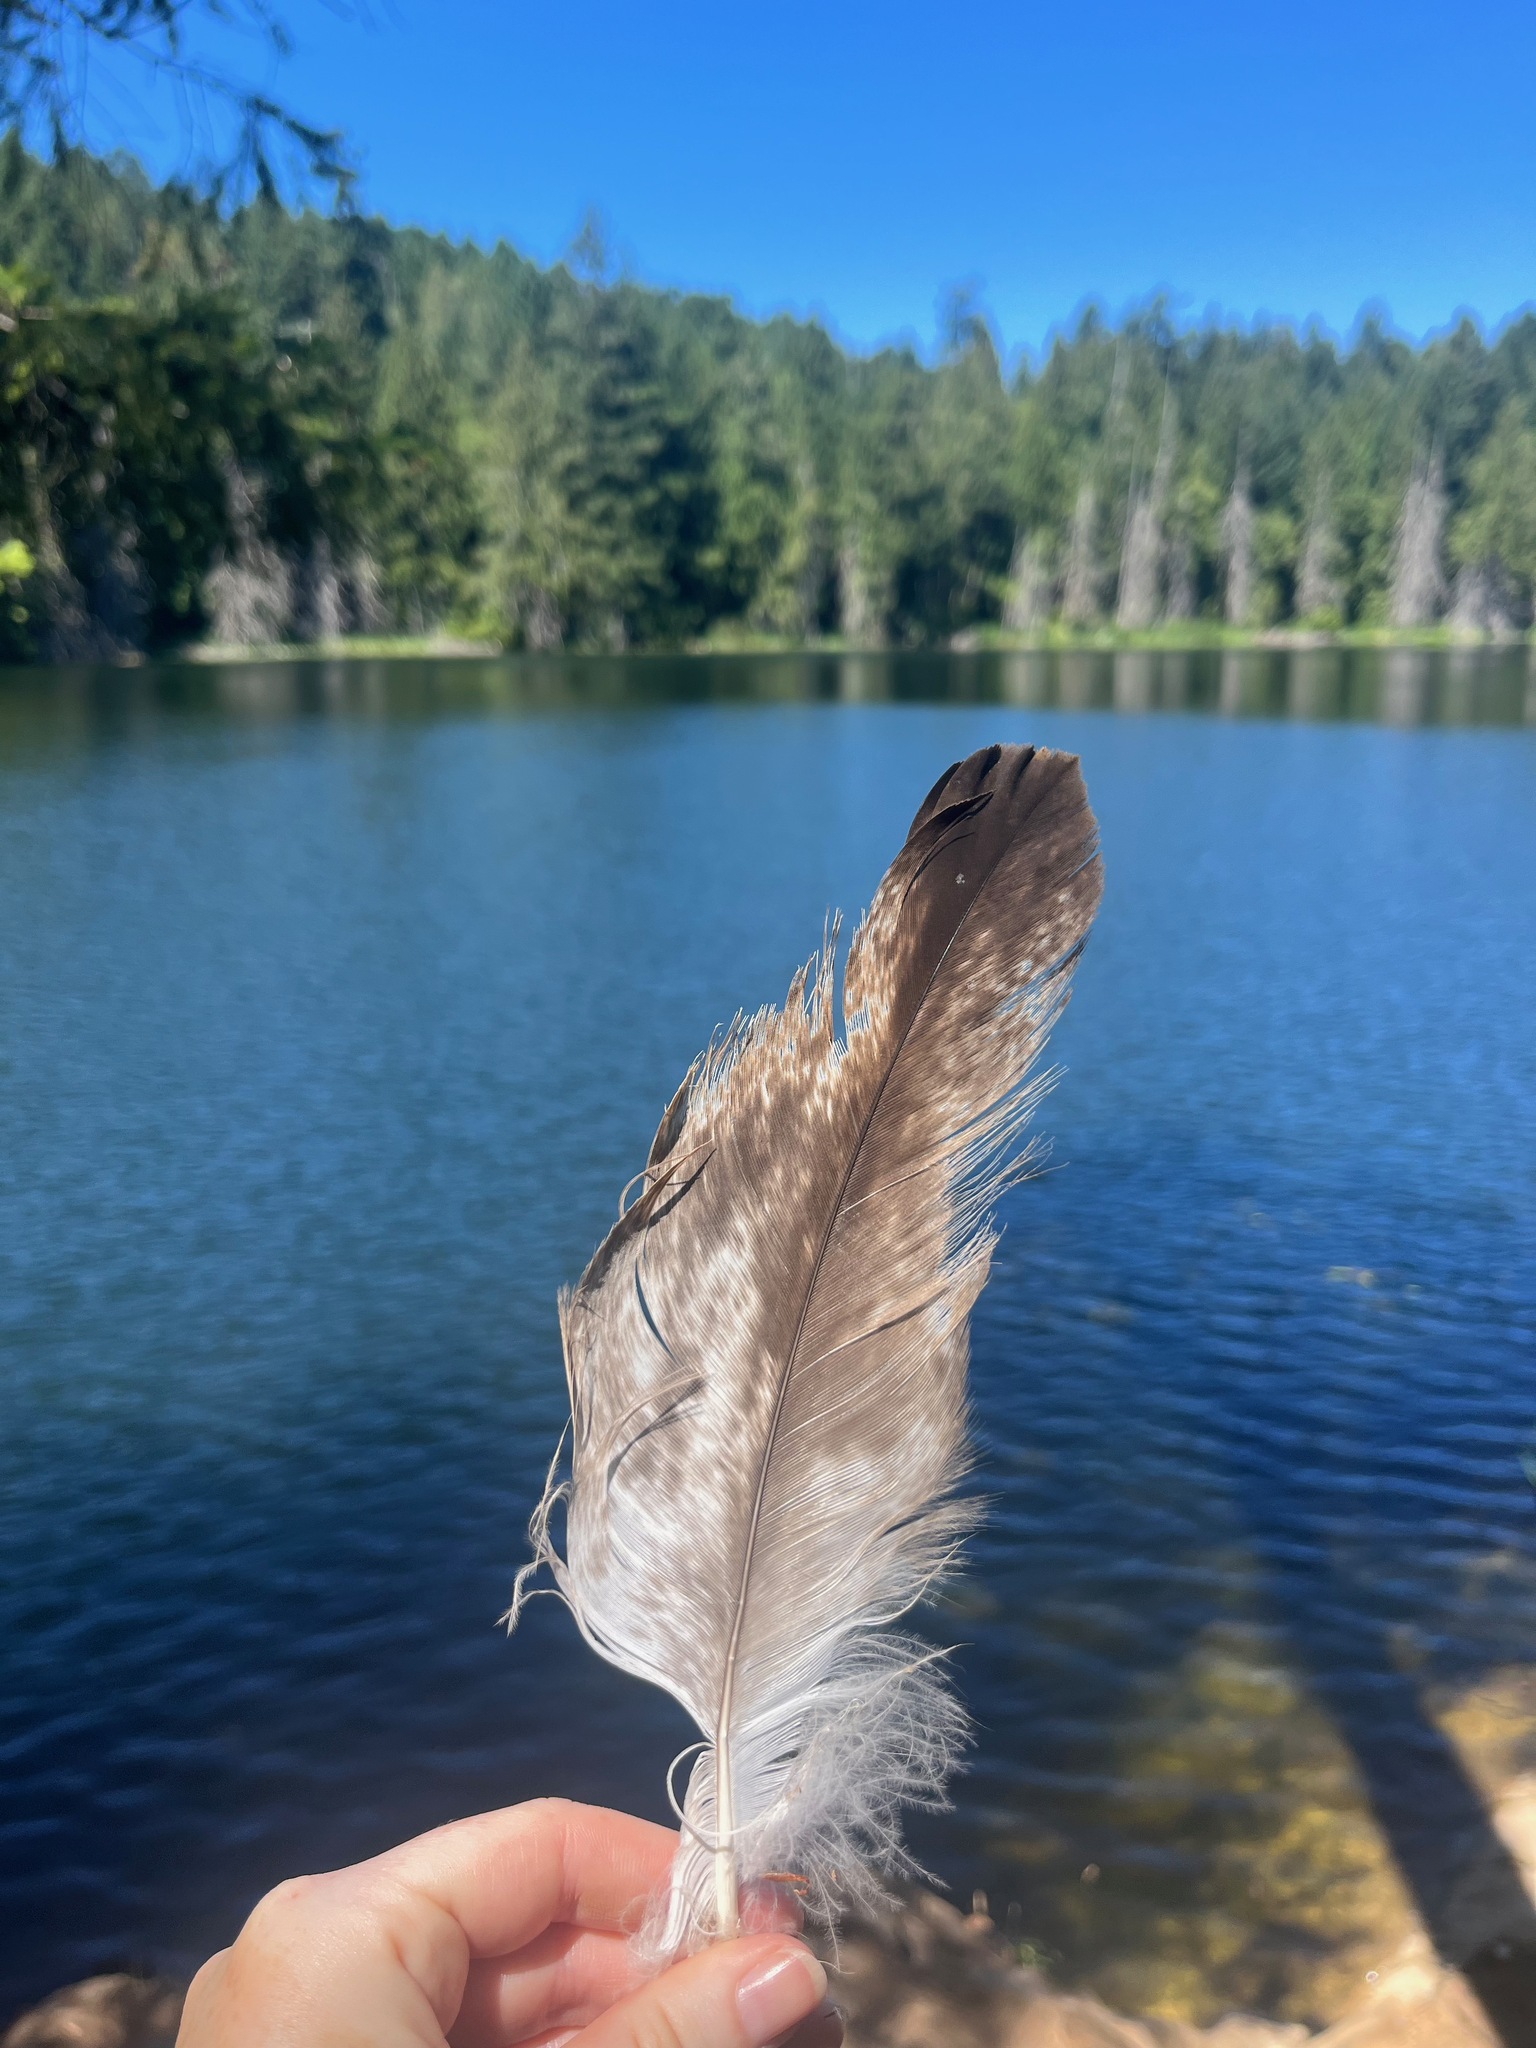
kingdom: Animalia
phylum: Chordata
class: Aves
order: Accipitriformes
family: Accipitridae
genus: Haliaeetus
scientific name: Haliaeetus leucocephalus
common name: Bald eagle
